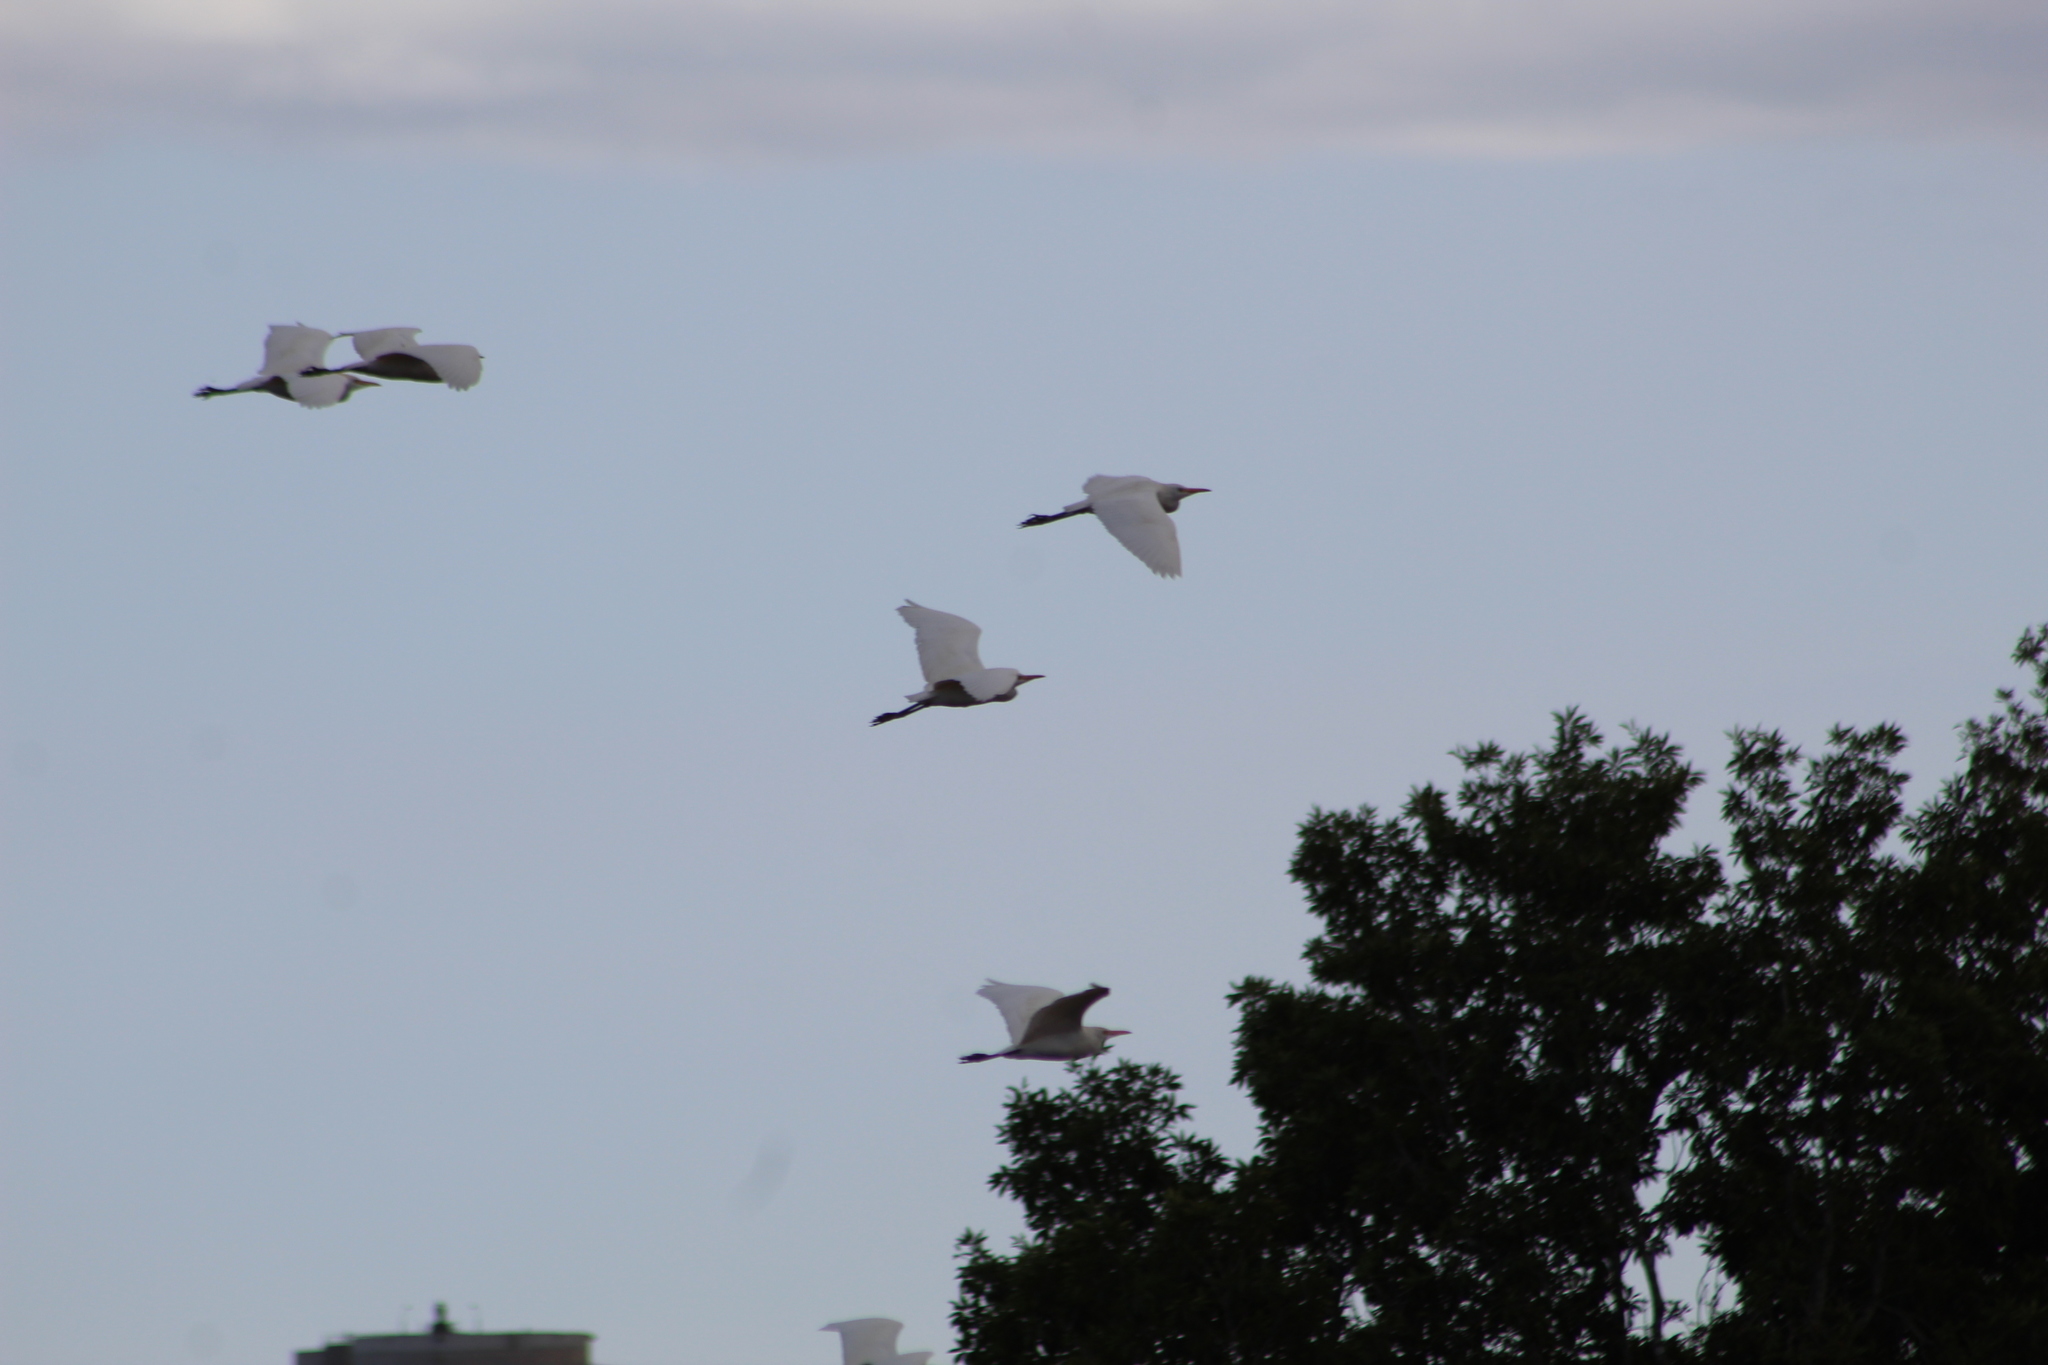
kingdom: Animalia
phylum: Chordata
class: Aves
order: Pelecaniformes
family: Ardeidae
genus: Bubulcus
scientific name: Bubulcus ibis
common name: Cattle egret
